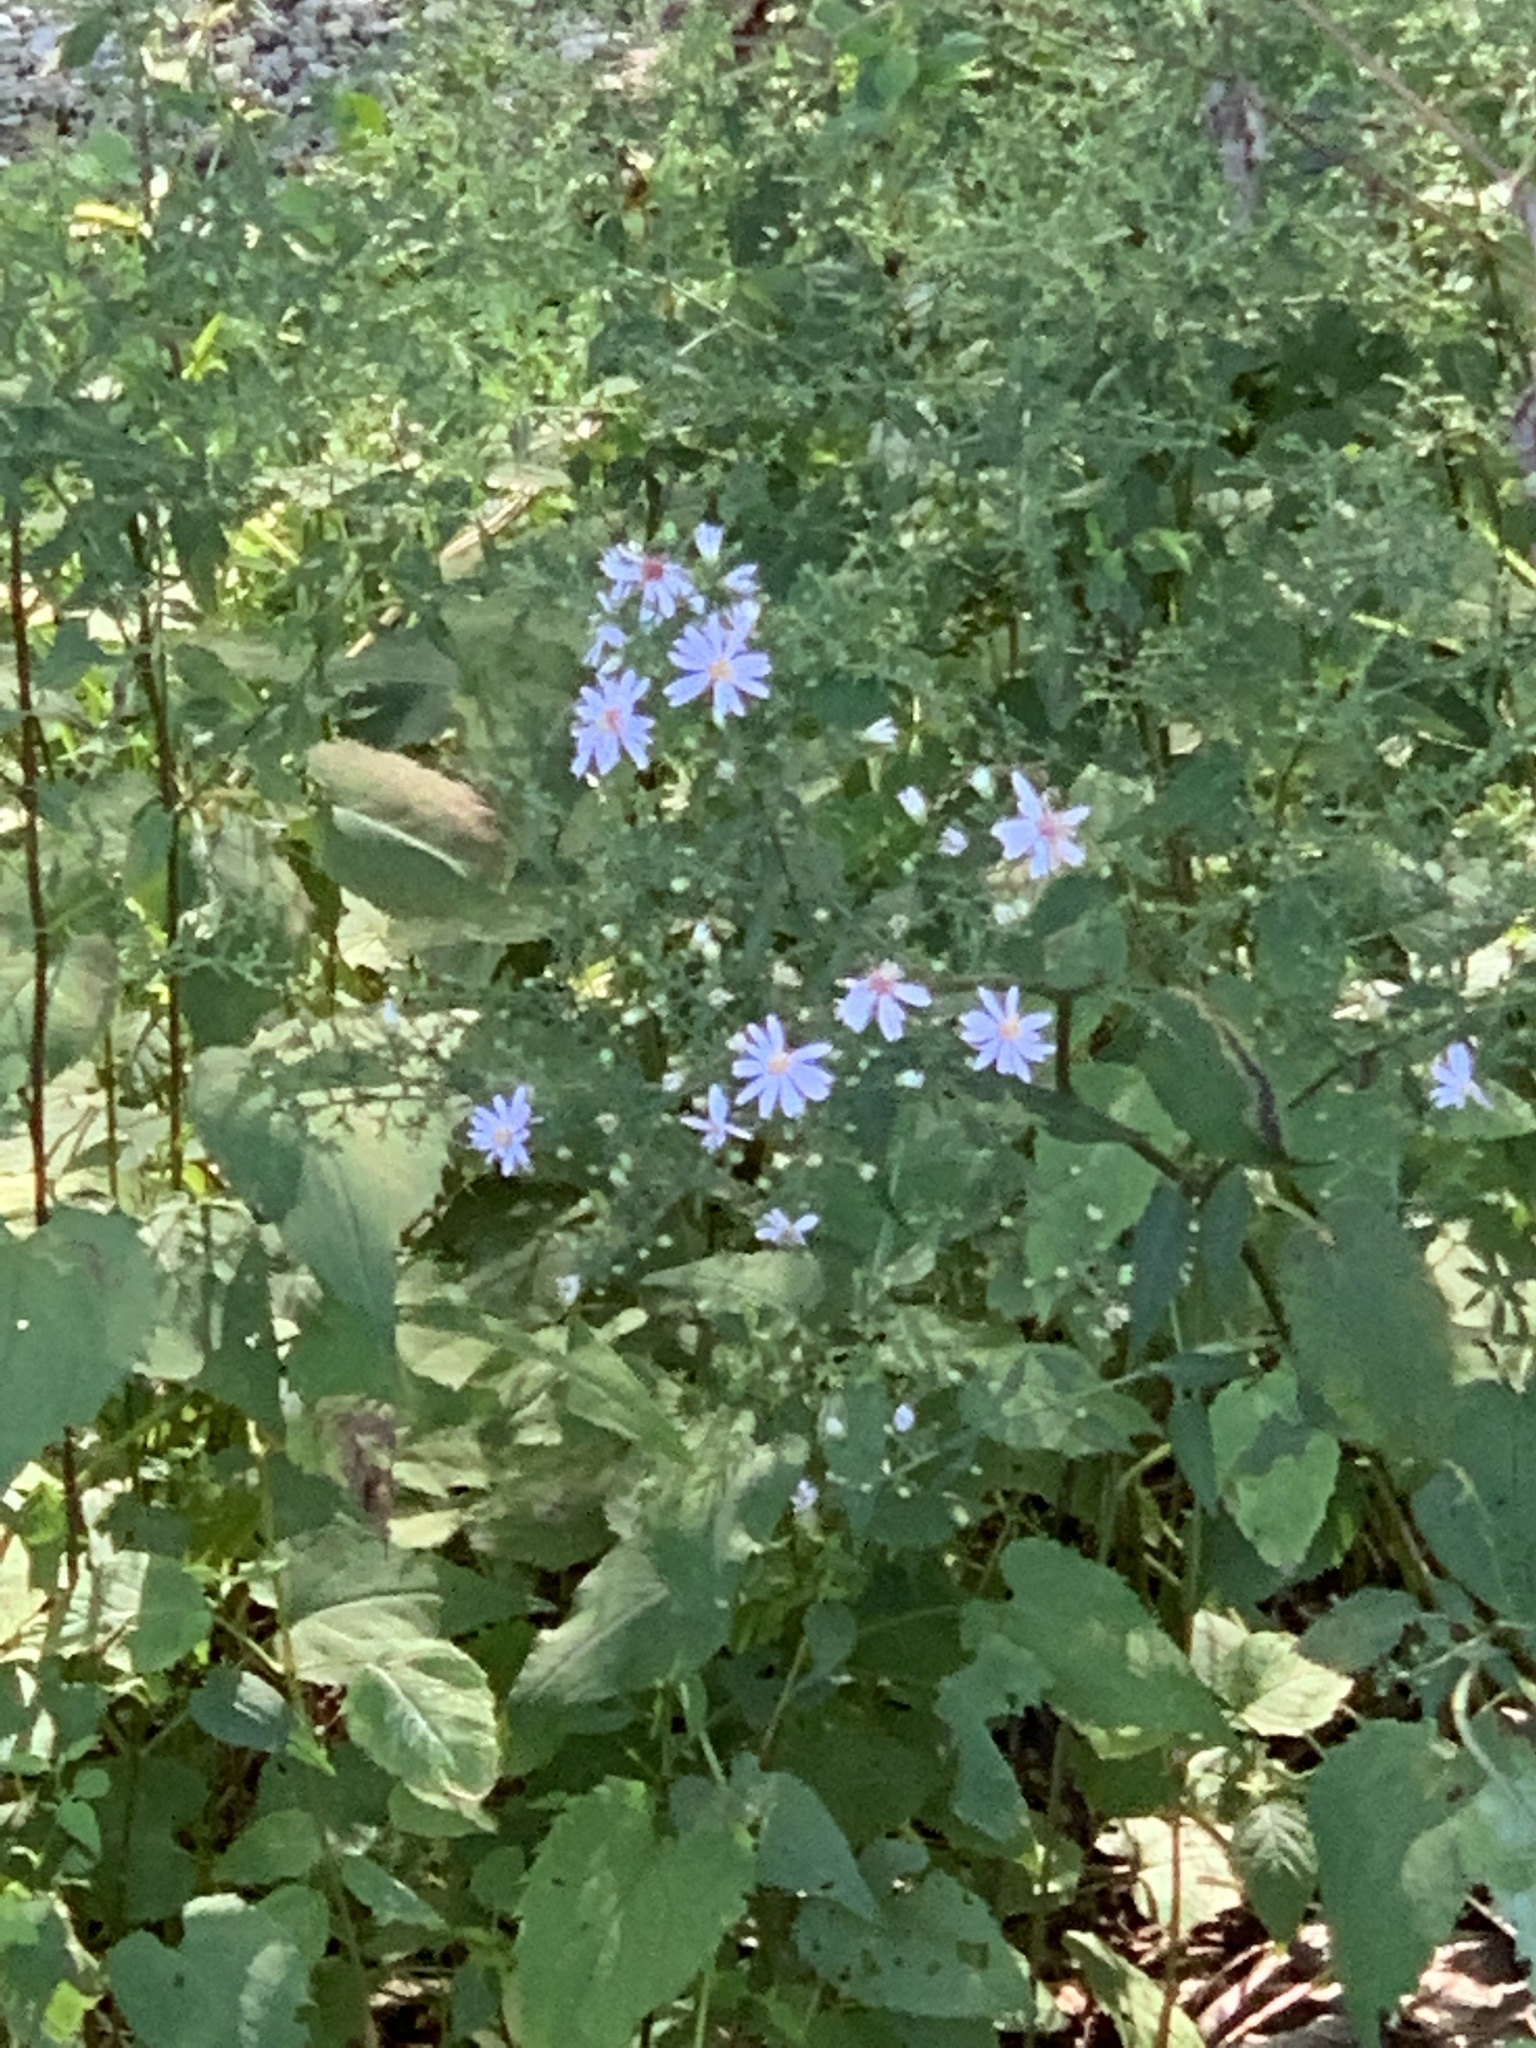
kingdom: Plantae
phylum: Tracheophyta
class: Magnoliopsida
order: Asterales
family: Asteraceae
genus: Symphyotrichum
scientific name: Symphyotrichum cordifolium
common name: Beeweed
